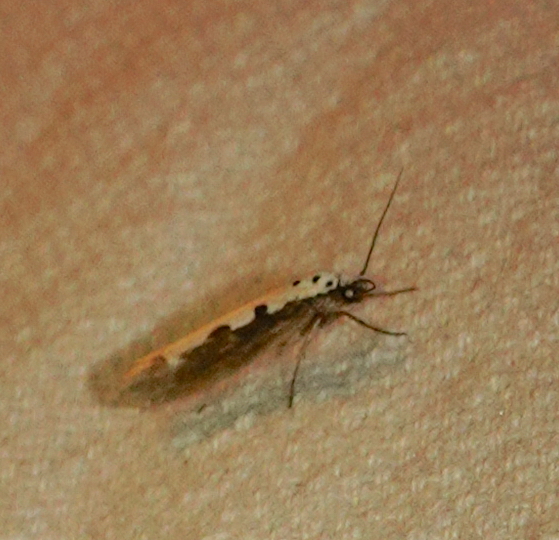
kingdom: Animalia
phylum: Arthropoda
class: Insecta
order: Lepidoptera
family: Ethmiidae
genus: Ethmia
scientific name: Ethmia bipunctella
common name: Bordered ermel
